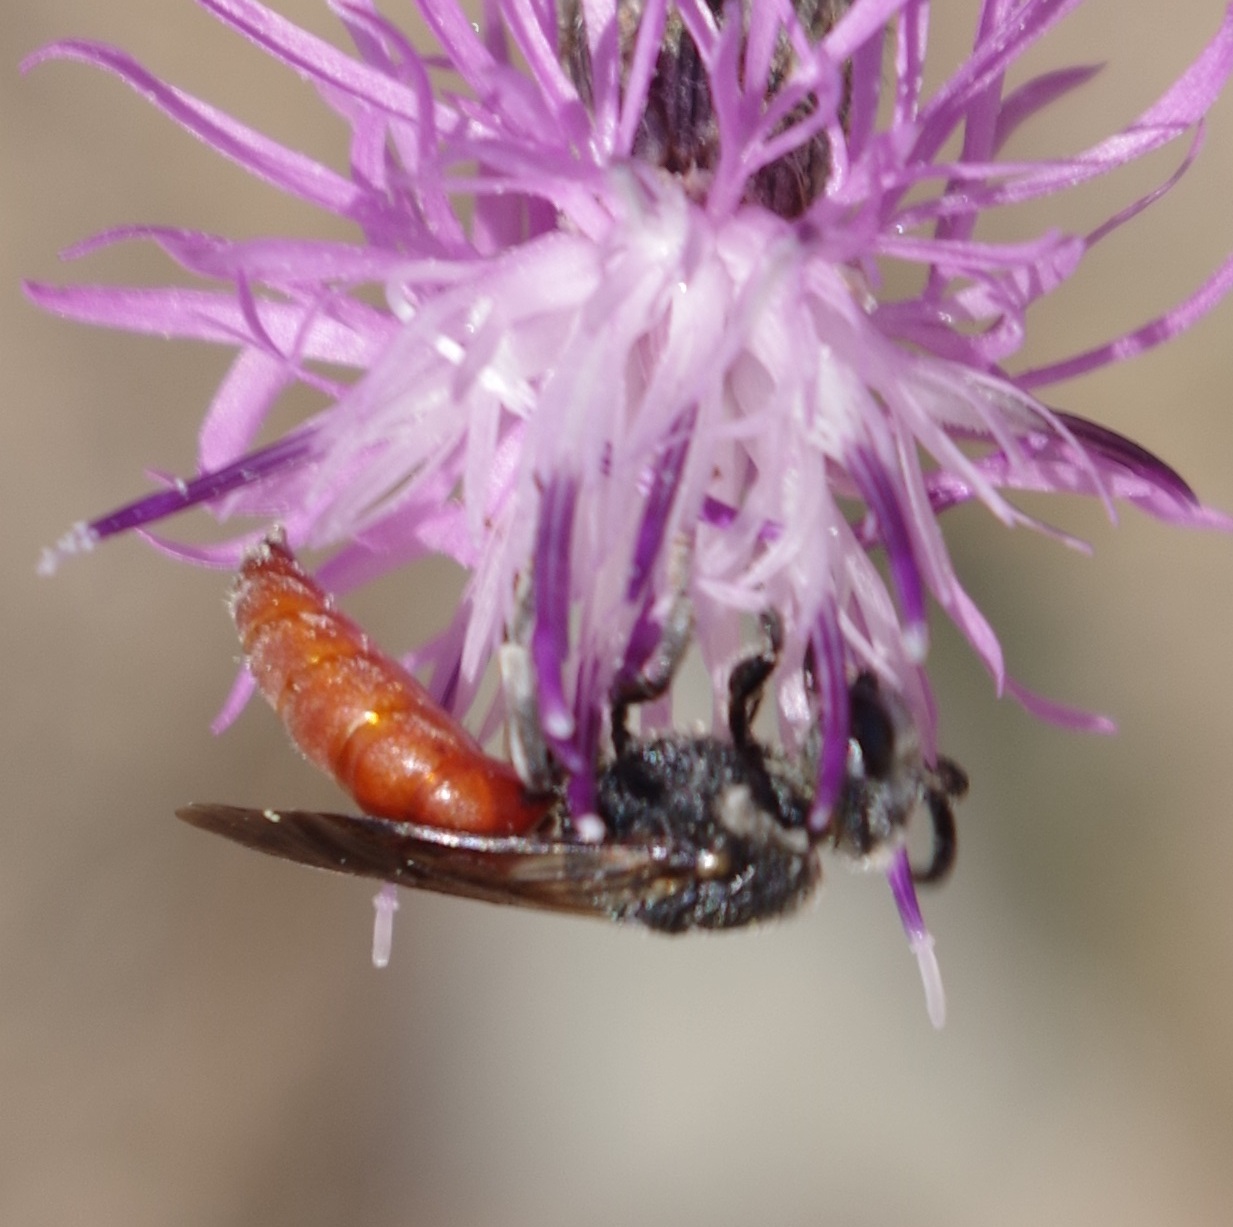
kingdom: Animalia
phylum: Arthropoda
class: Insecta
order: Hymenoptera
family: Halictidae
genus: Sphecodes
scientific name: Sphecodes albilabris
